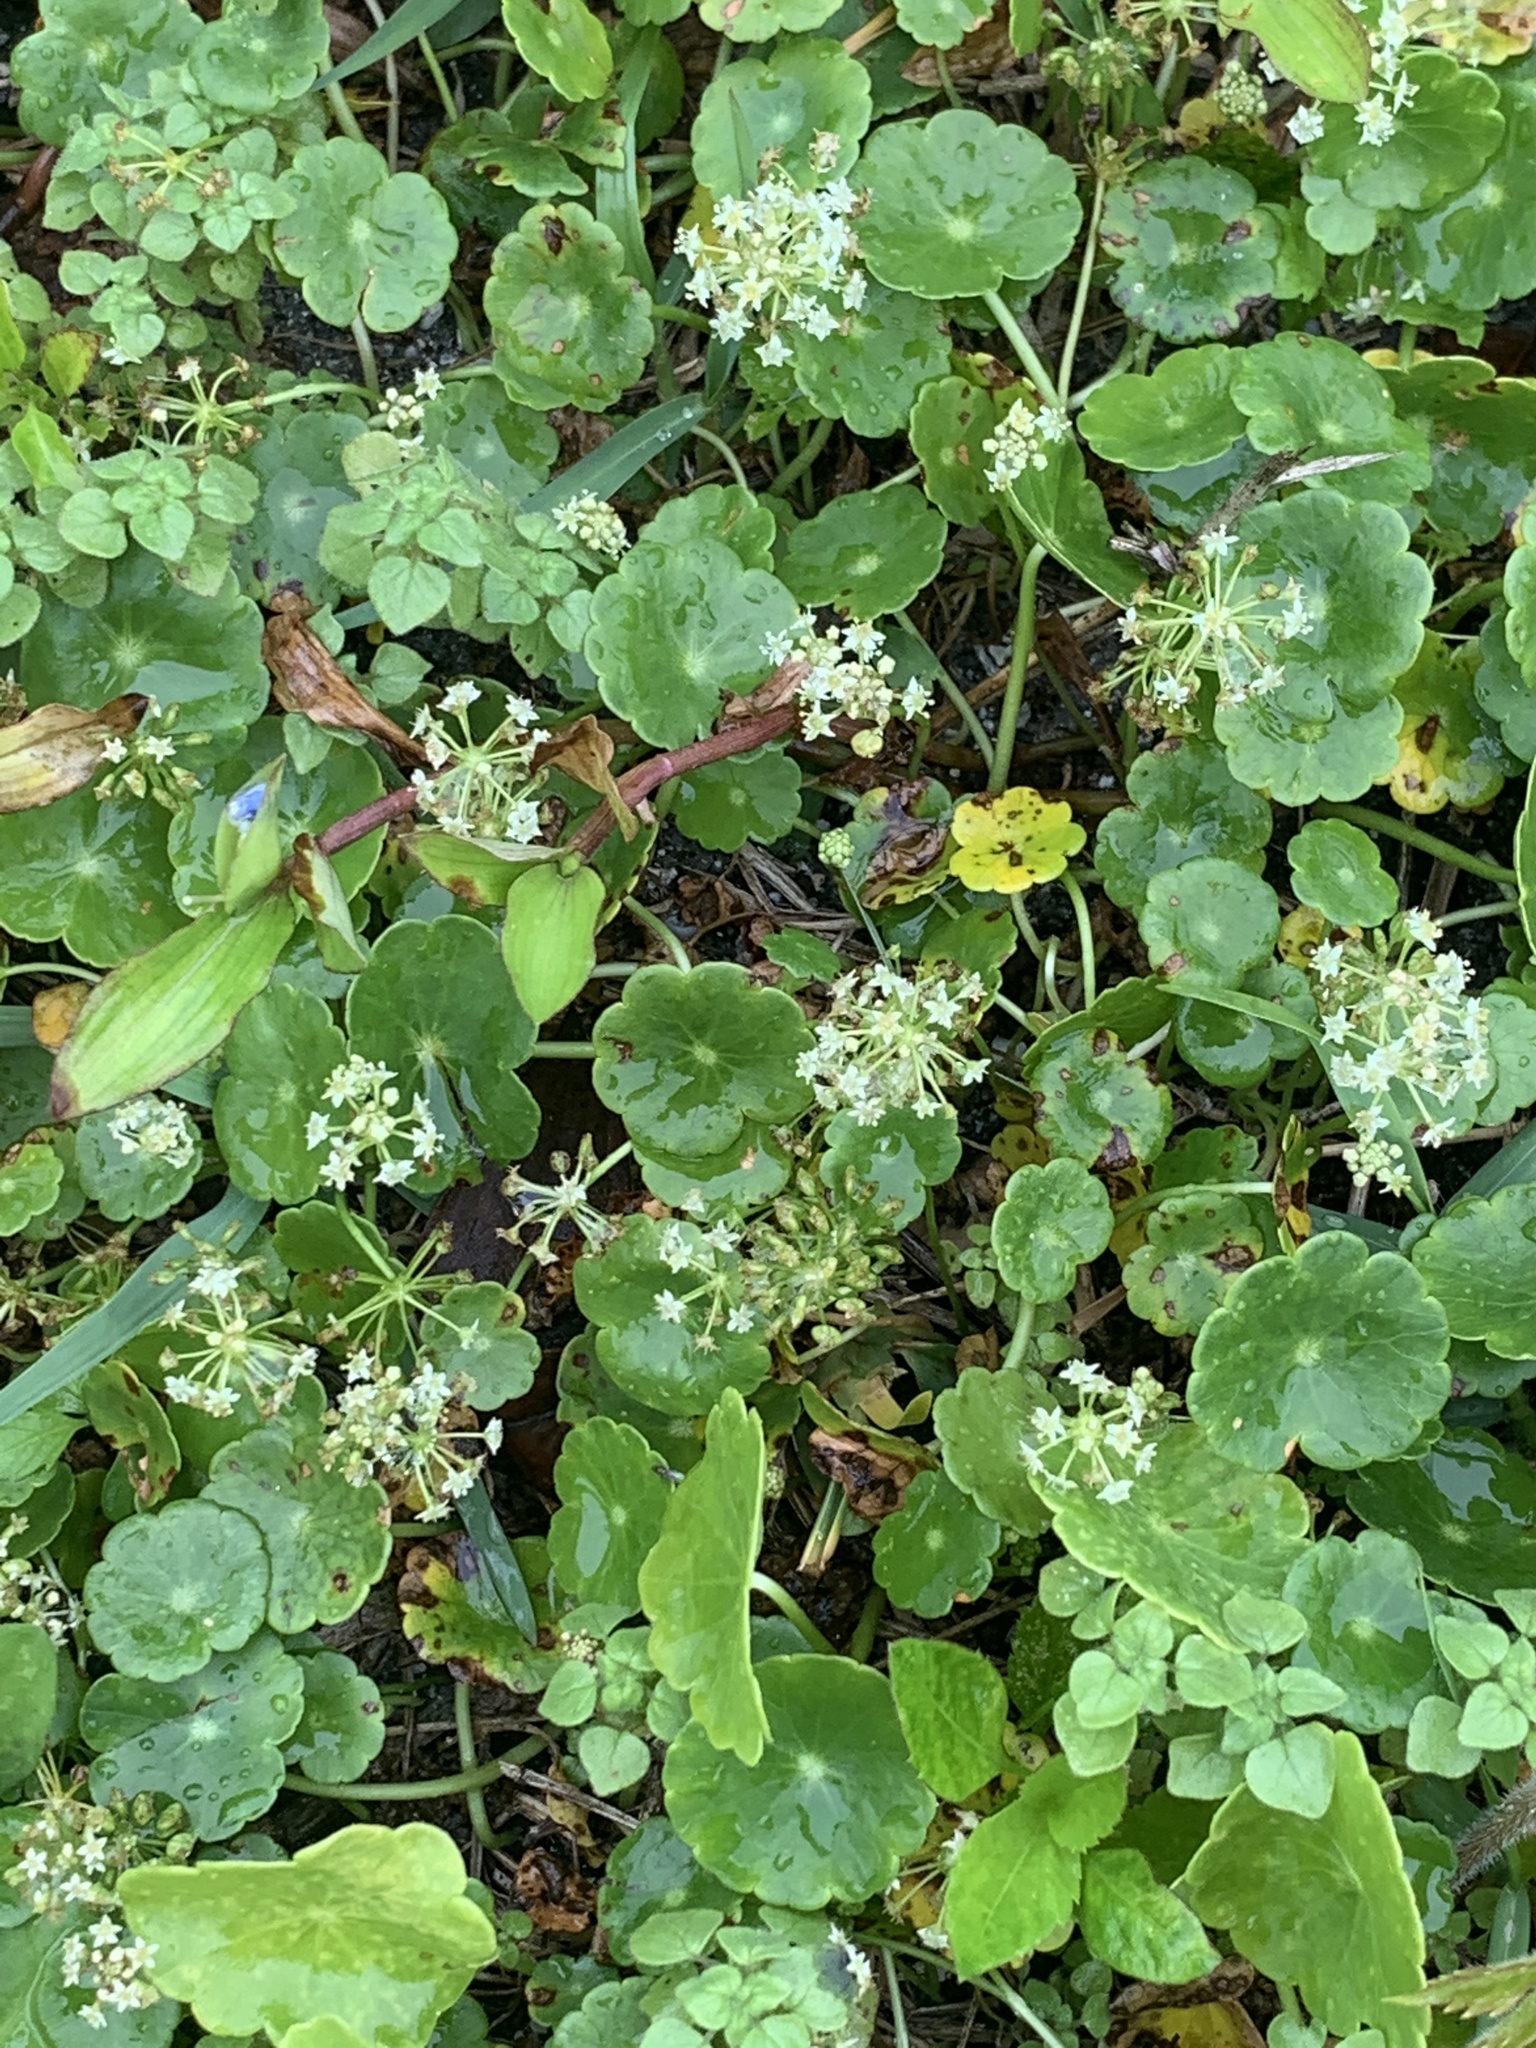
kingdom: Plantae
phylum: Tracheophyta
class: Magnoliopsida
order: Apiales
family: Araliaceae
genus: Hydrocotyle
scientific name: Hydrocotyle umbellata
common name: Water pennywort
